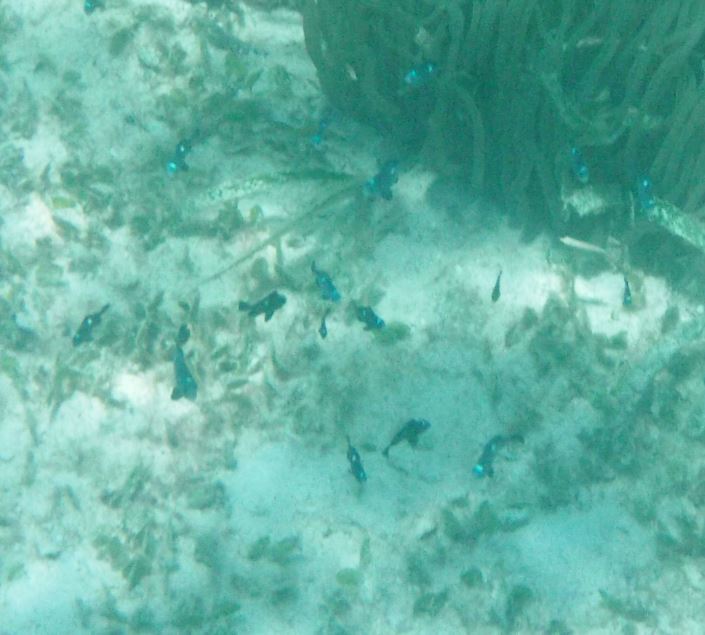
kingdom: Animalia
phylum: Chordata
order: Perciformes
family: Pomacentridae
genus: Dascyllus
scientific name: Dascyllus trimaculatus
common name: Threespot dascyllus
